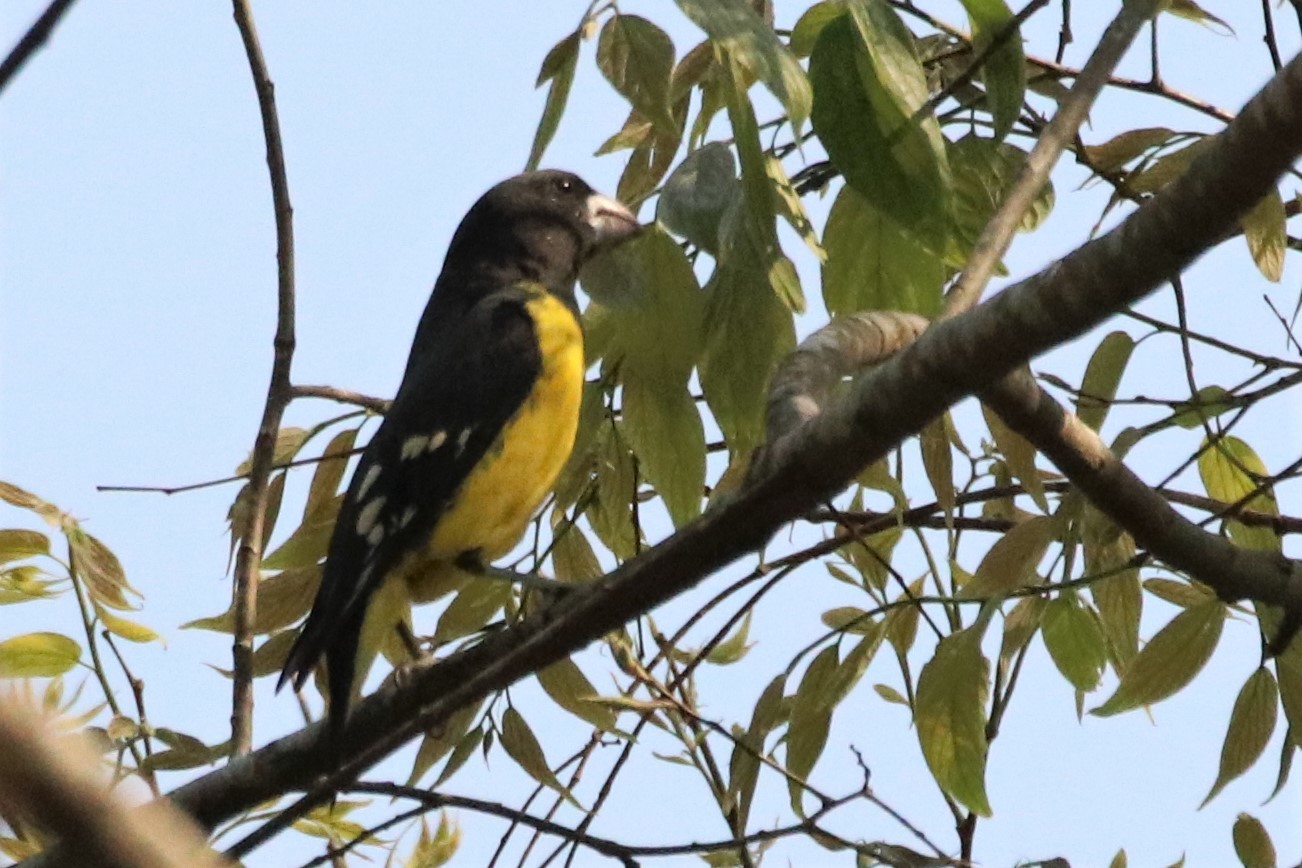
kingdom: Animalia
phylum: Chordata
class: Aves
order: Passeriformes
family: Fringillidae
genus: Mycerobas
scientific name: Mycerobas melanozanthos
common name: Spot-winged grosbeak
